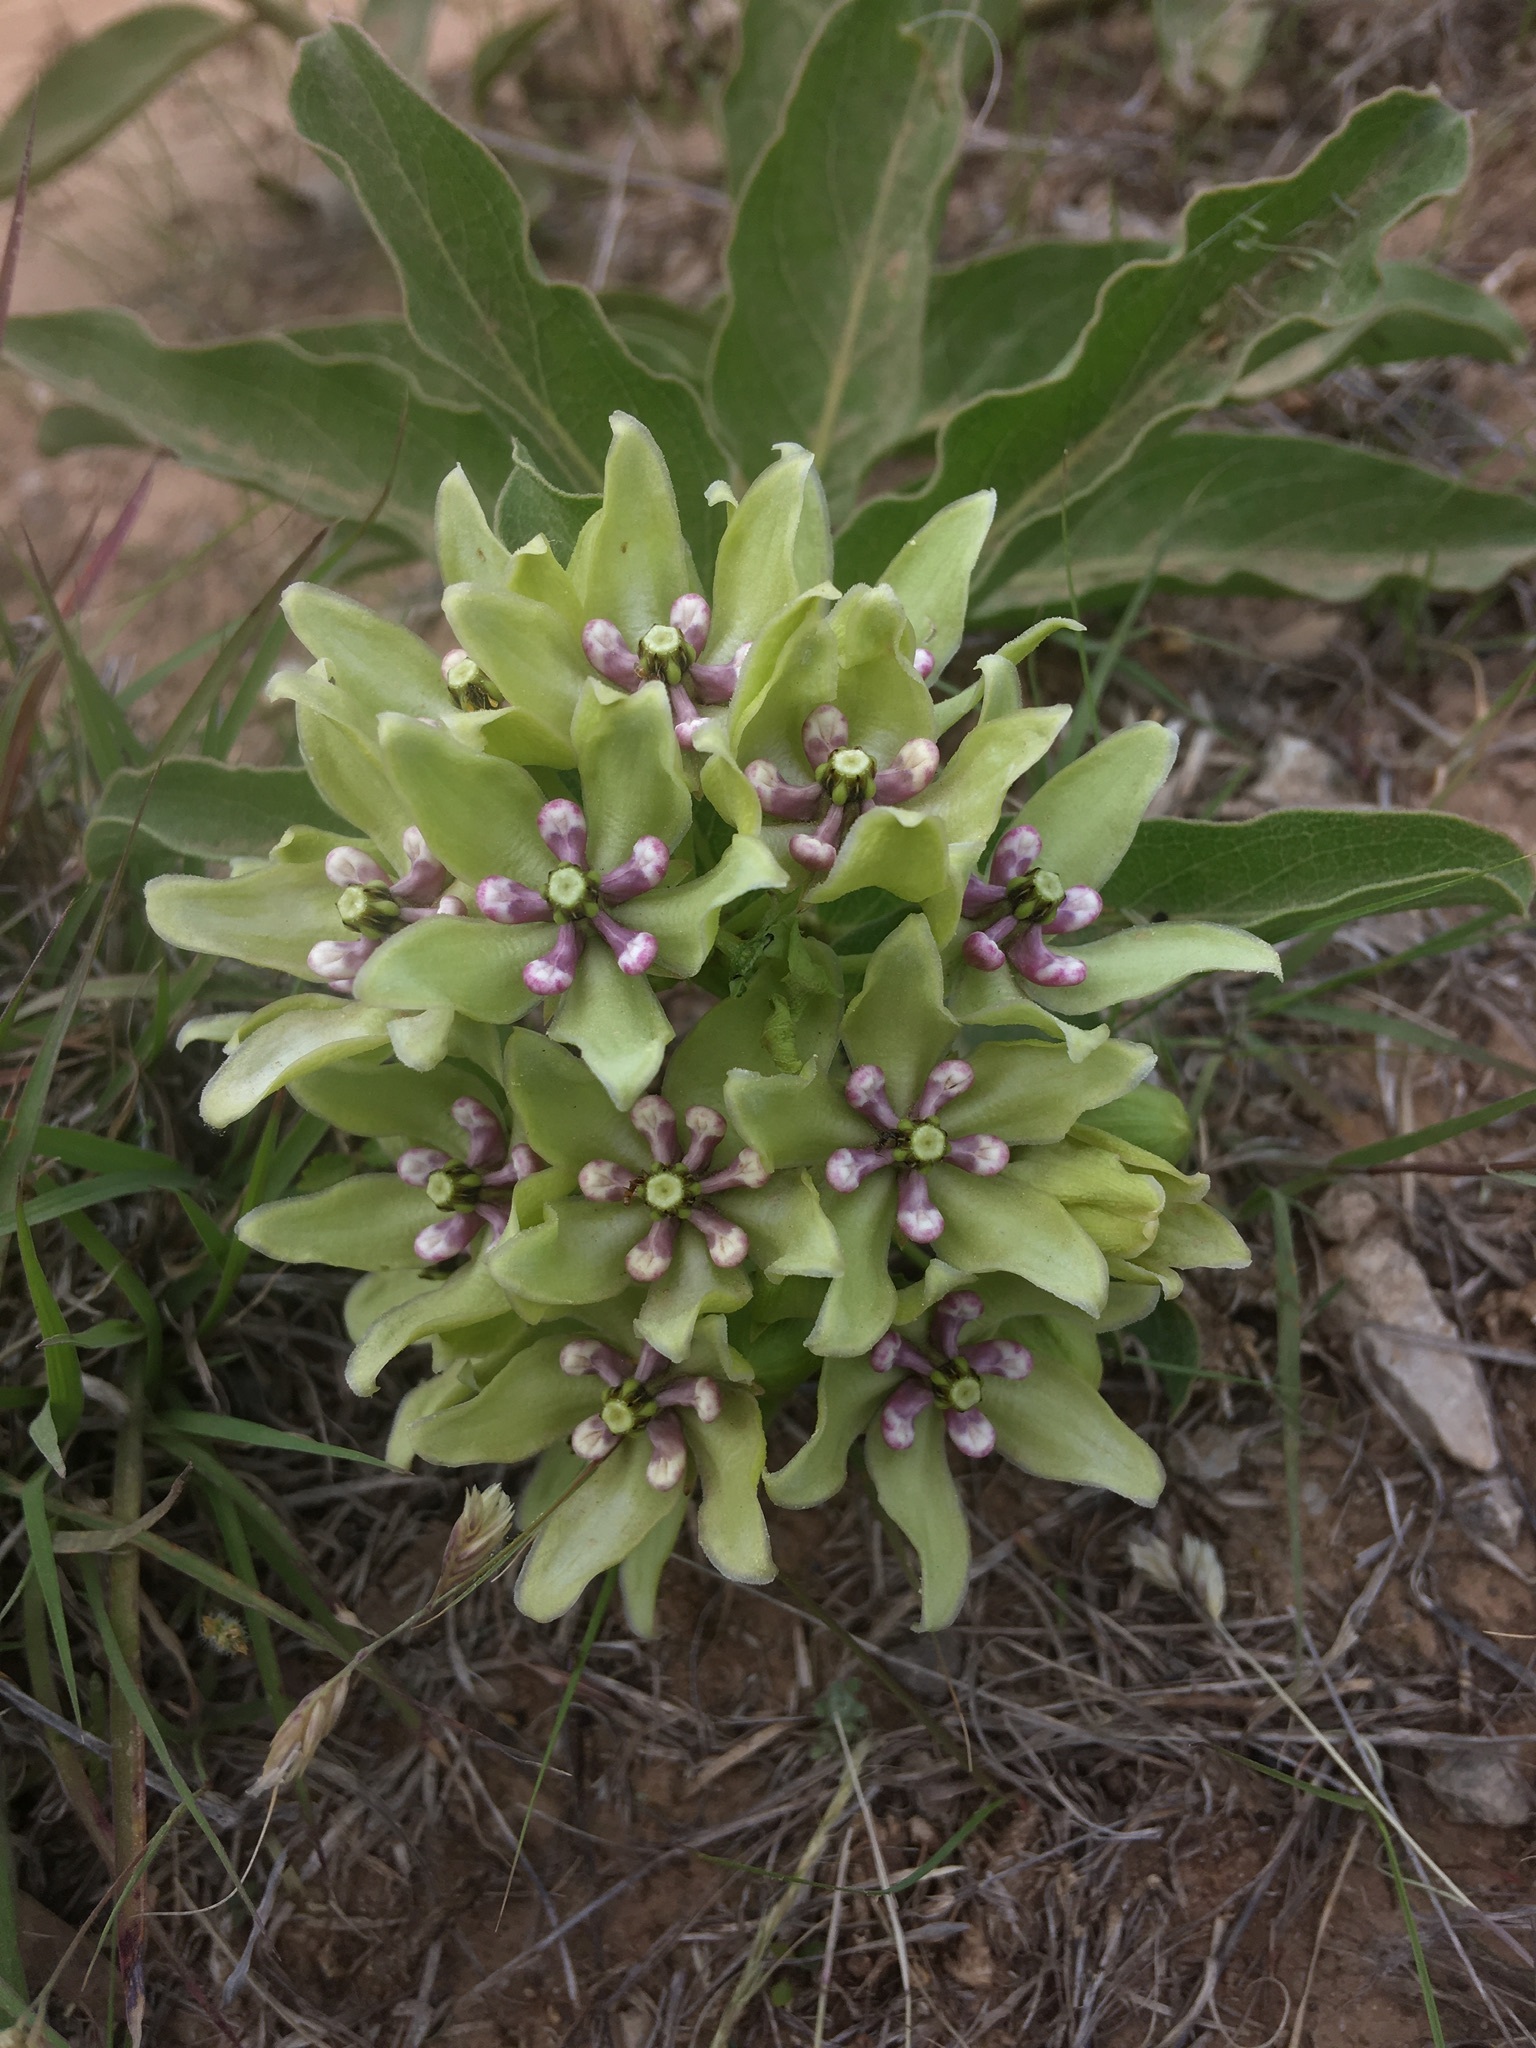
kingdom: Plantae
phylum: Tracheophyta
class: Magnoliopsida
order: Gentianales
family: Apocynaceae
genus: Asclepias
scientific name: Asclepias viridis
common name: Antelope-horns
